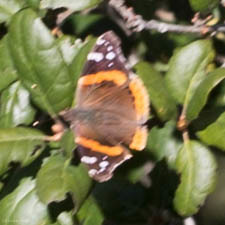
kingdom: Animalia
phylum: Arthropoda
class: Insecta
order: Lepidoptera
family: Nymphalidae
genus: Vanessa
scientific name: Vanessa atalanta
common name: Red admiral
